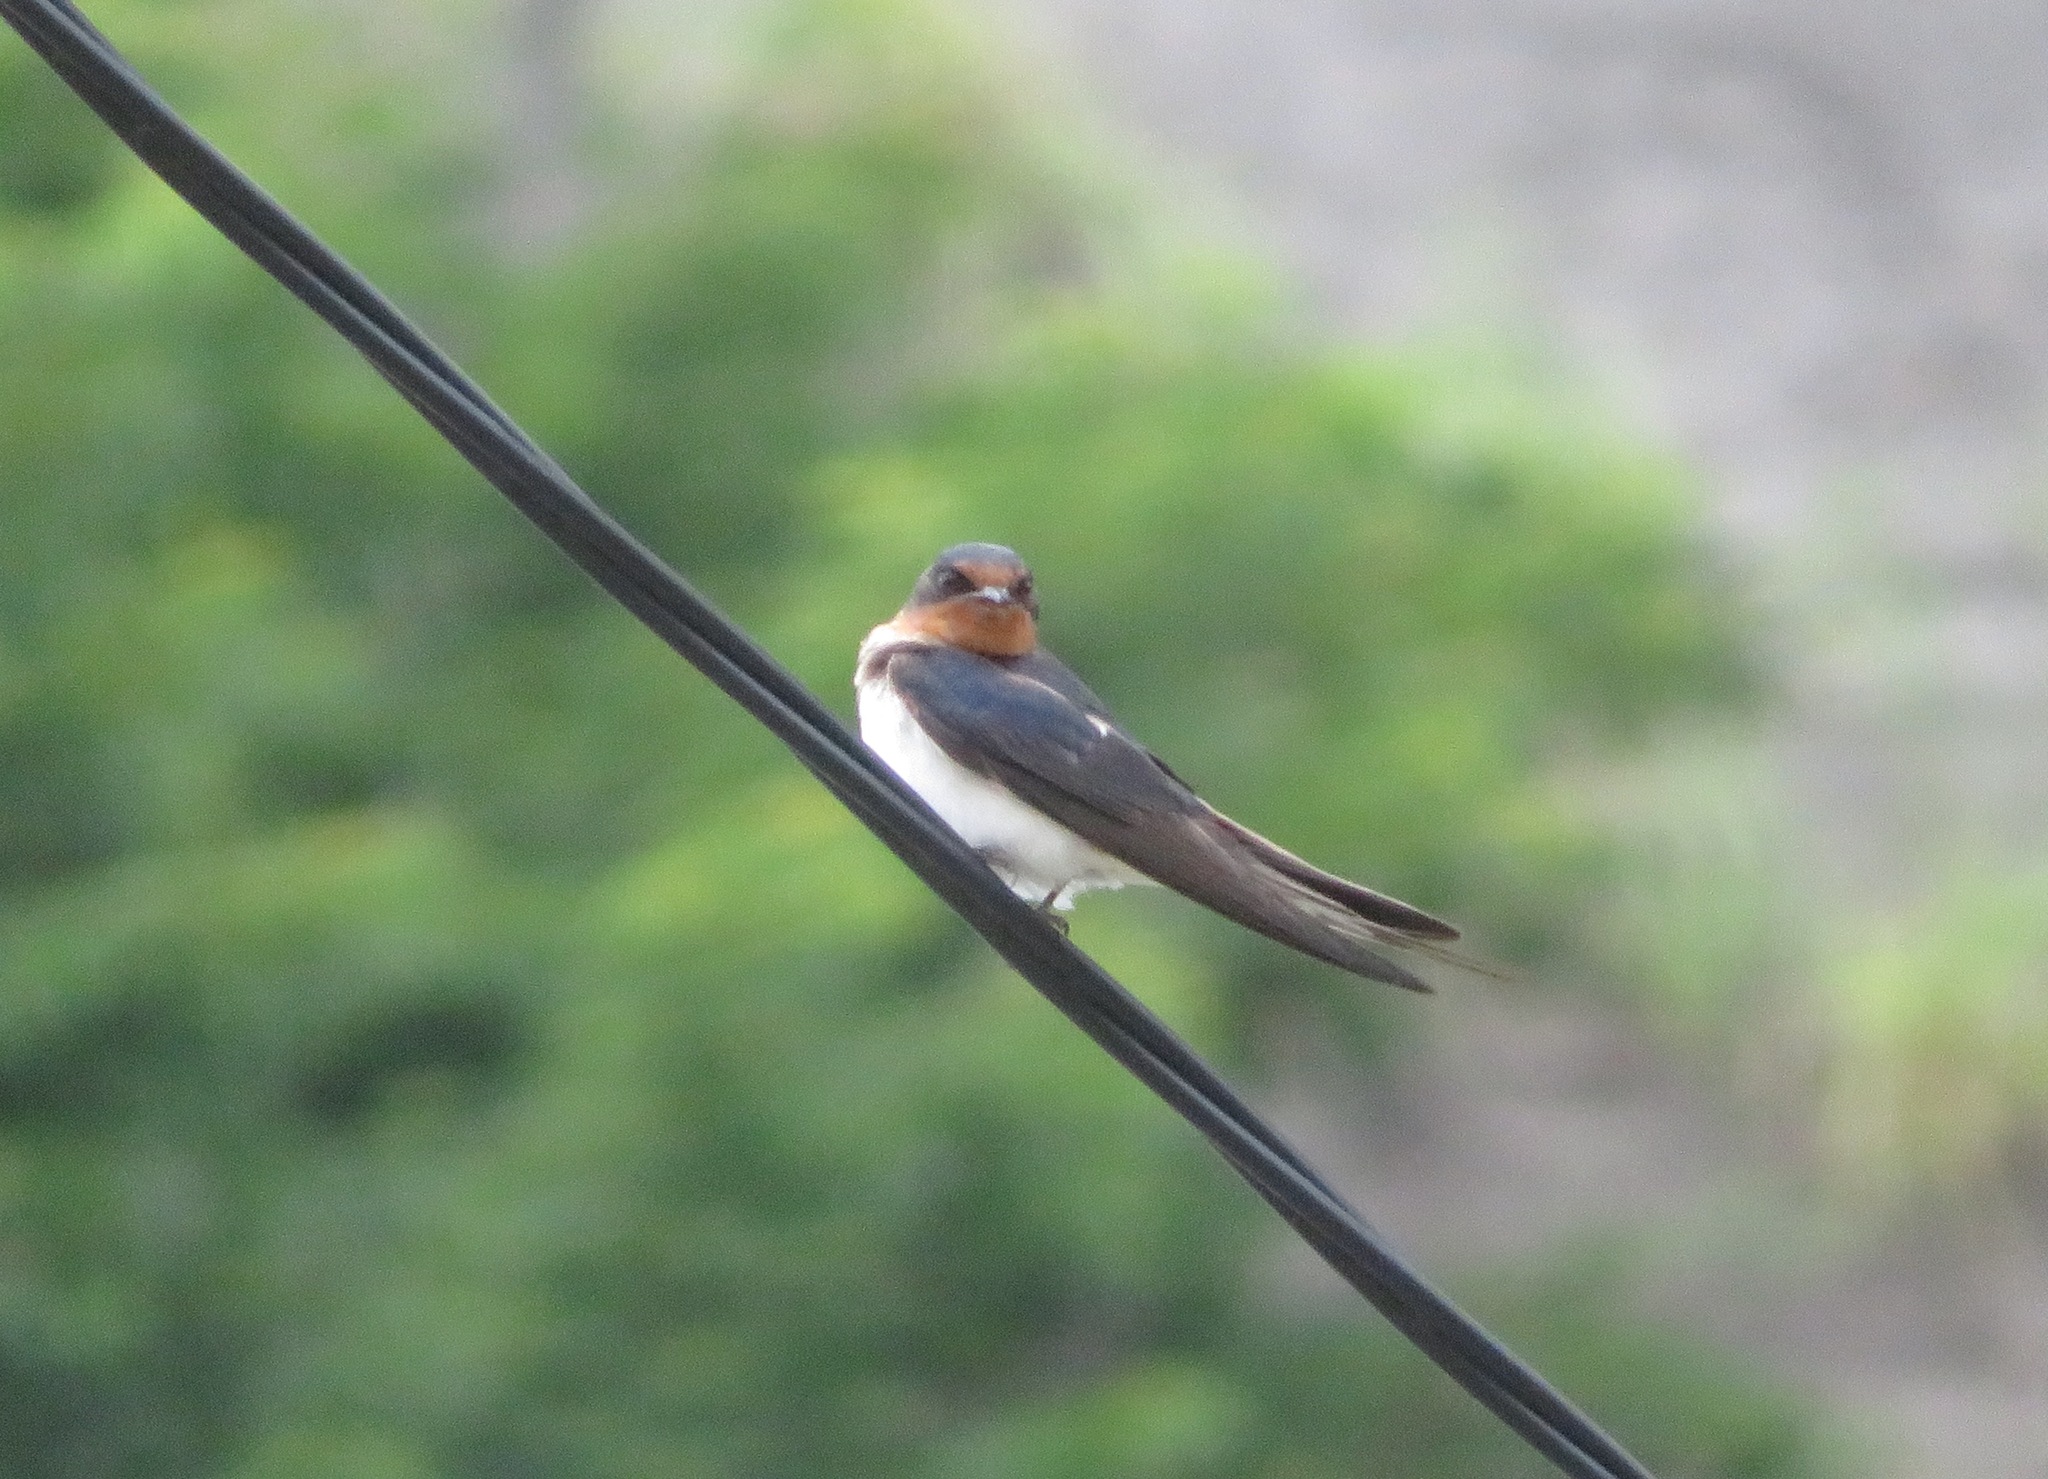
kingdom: Animalia
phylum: Chordata
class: Aves
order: Passeriformes
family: Hirundinidae
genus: Hirundo
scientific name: Hirundo rustica
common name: Barn swallow
